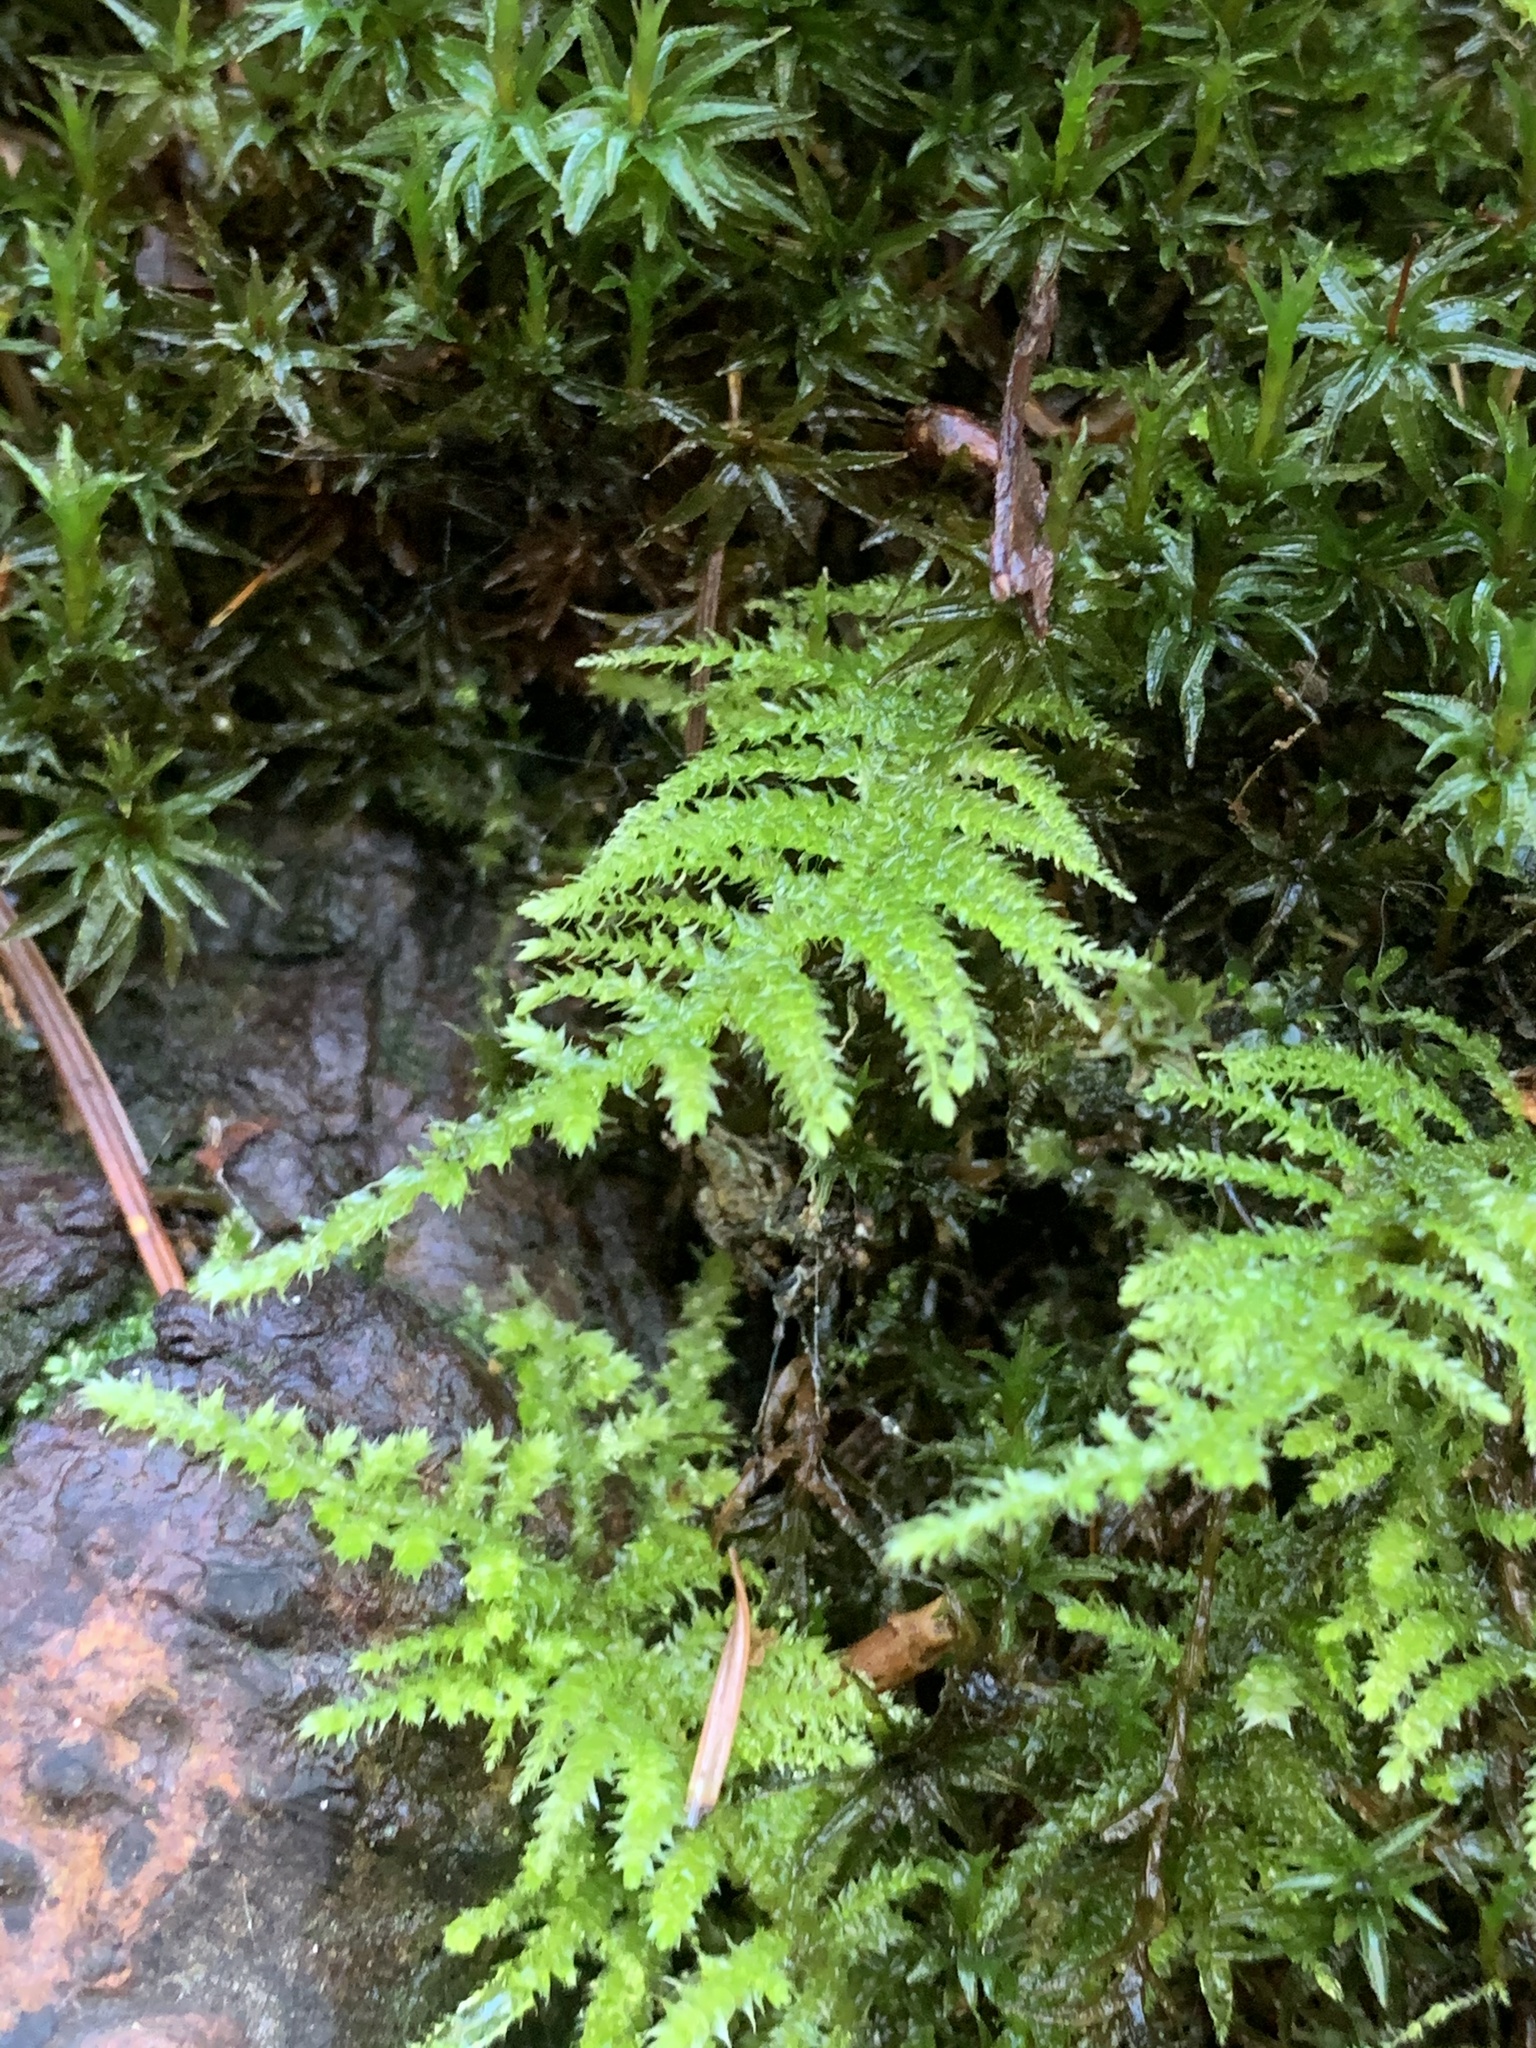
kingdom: Plantae
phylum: Bryophyta
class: Bryopsida
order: Hypnales
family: Brachytheciaceae
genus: Kindbergia
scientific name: Kindbergia oregana
